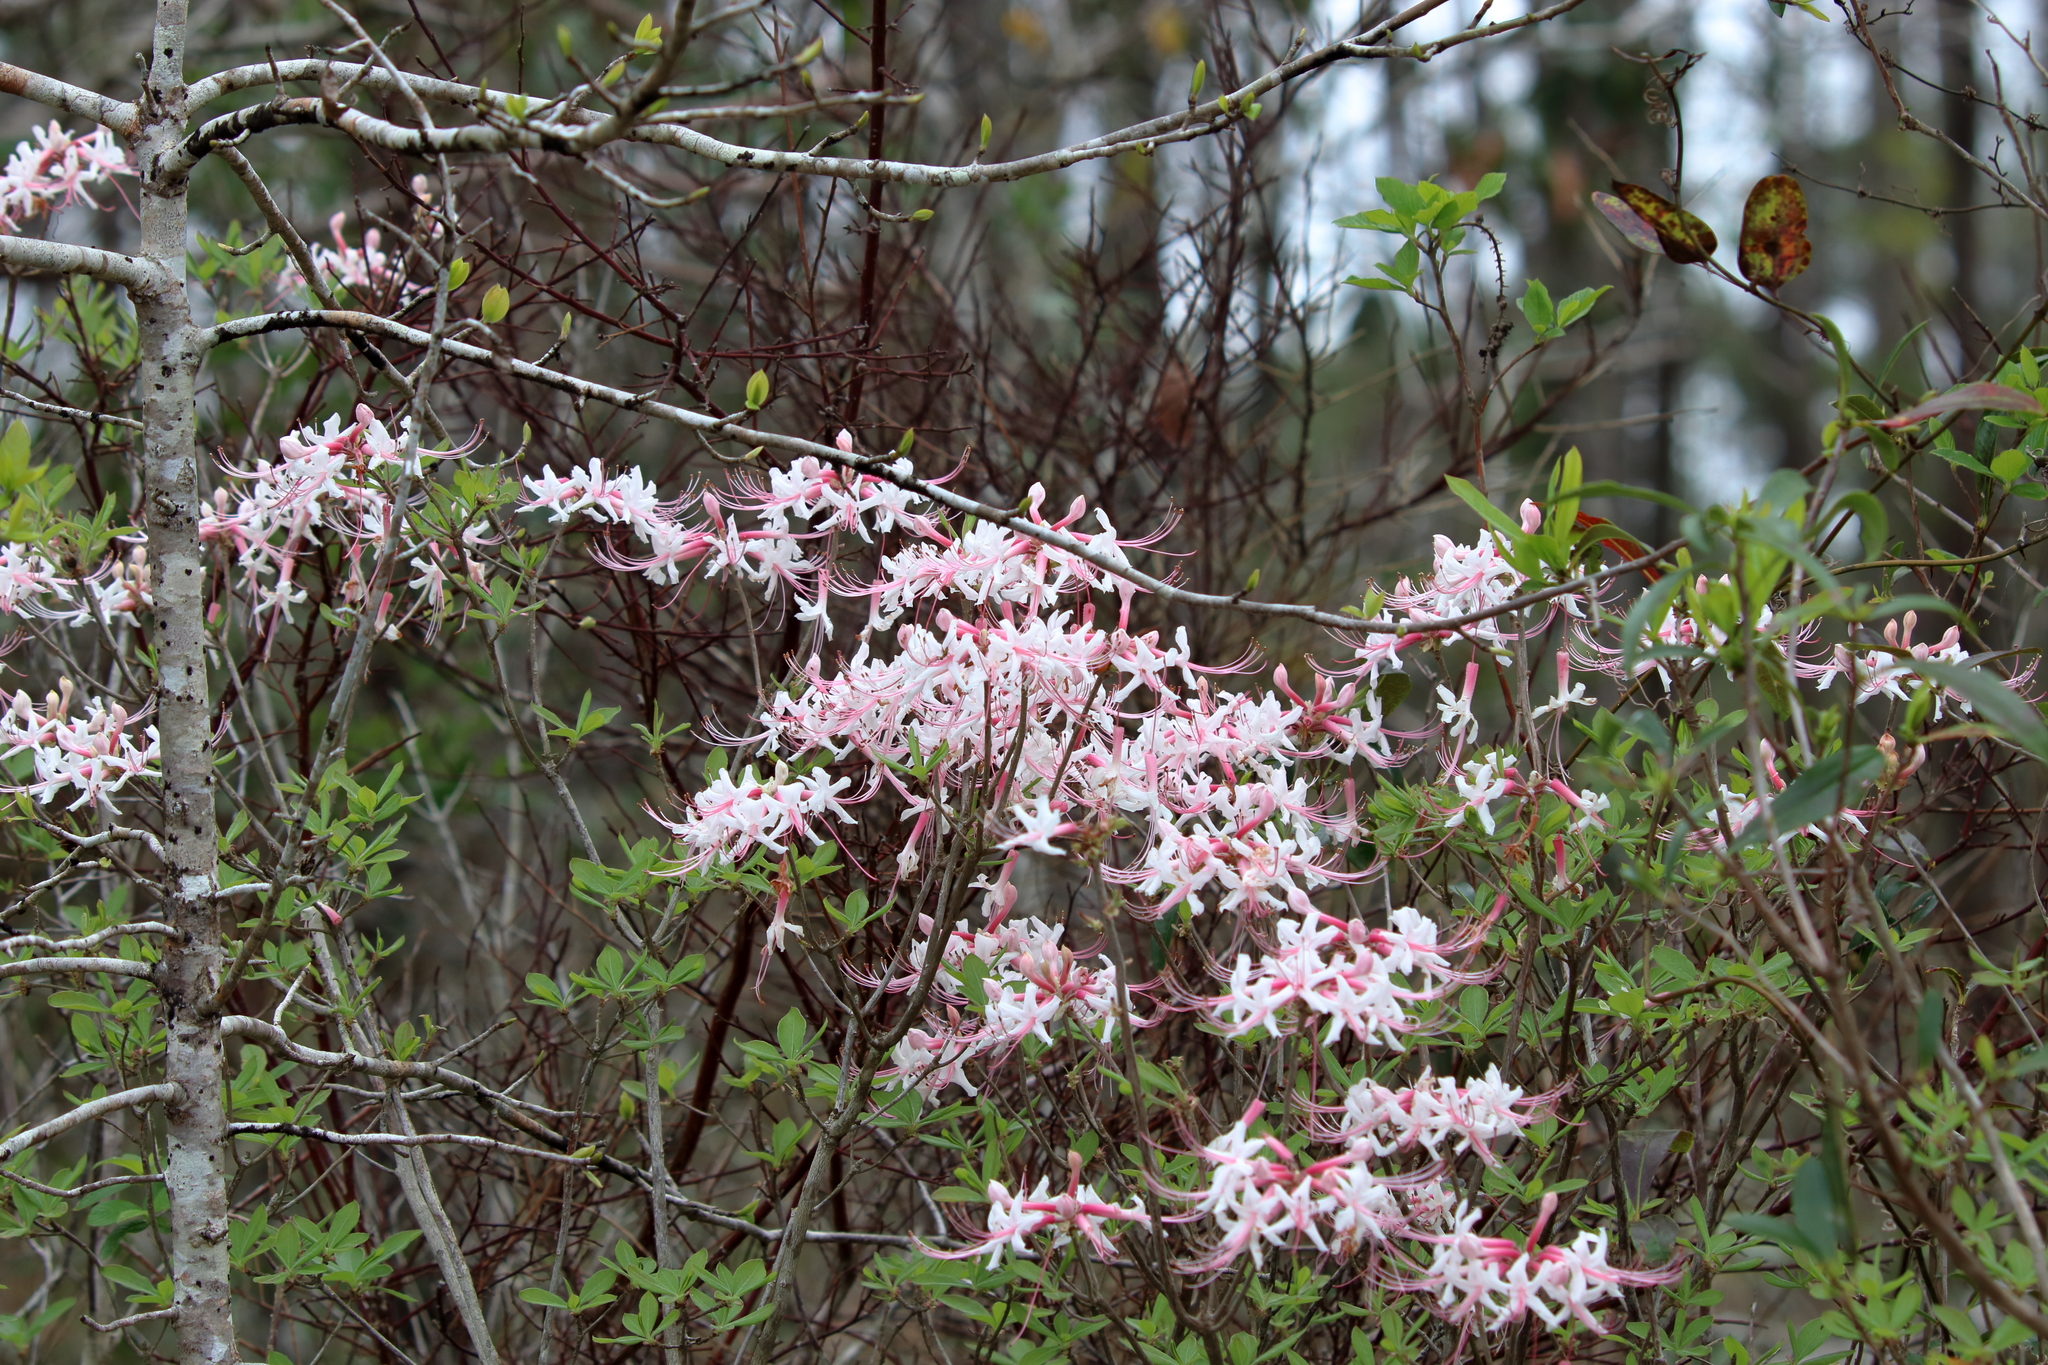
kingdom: Plantae
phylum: Tracheophyta
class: Magnoliopsida
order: Ericales
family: Ericaceae
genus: Rhododendron
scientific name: Rhododendron canescens
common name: Mountain azalea
